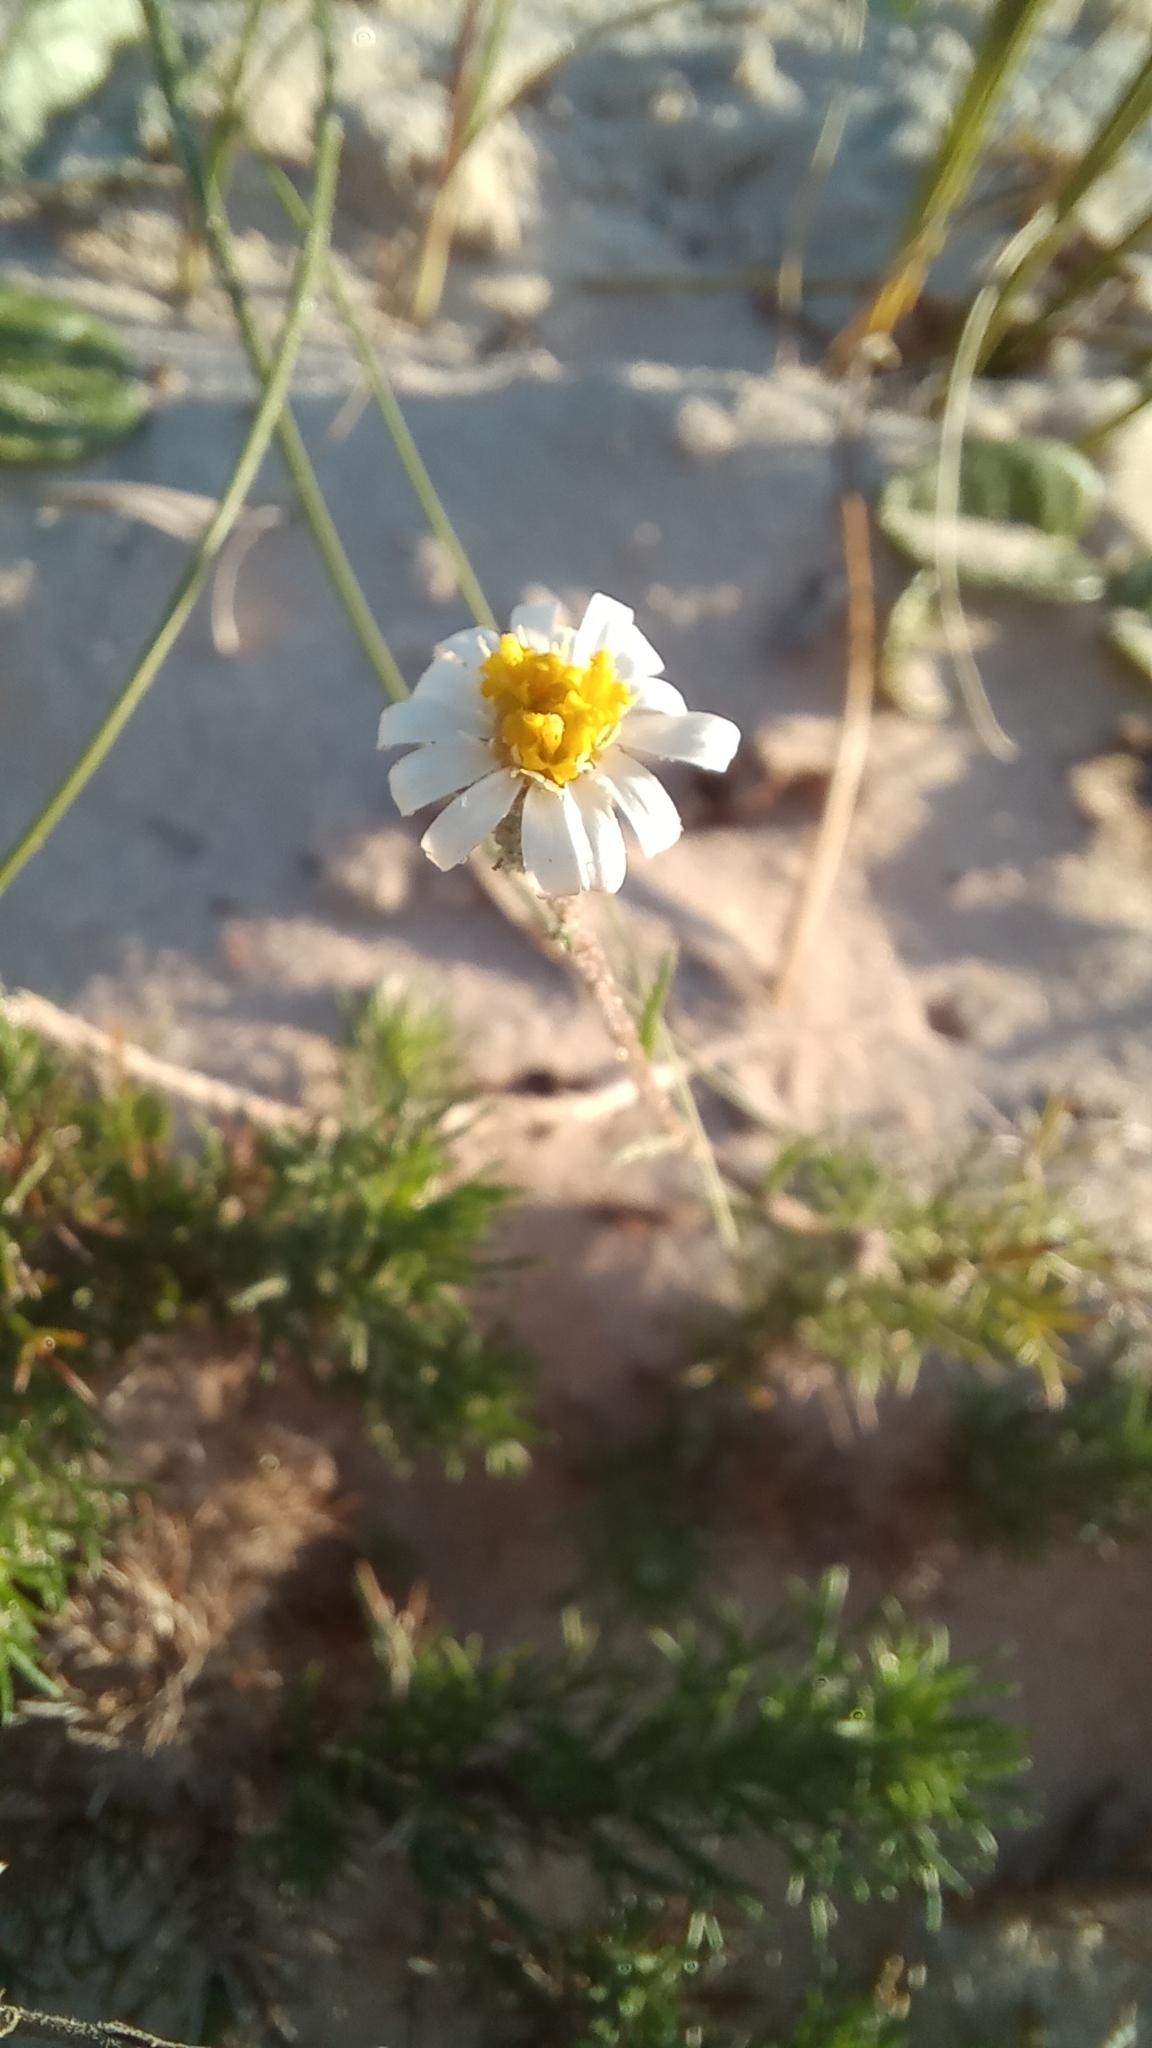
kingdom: Plantae
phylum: Tracheophyta
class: Magnoliopsida
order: Asterales
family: Asteraceae
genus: Sommerfeltia
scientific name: Sommerfeltia spinulosa
